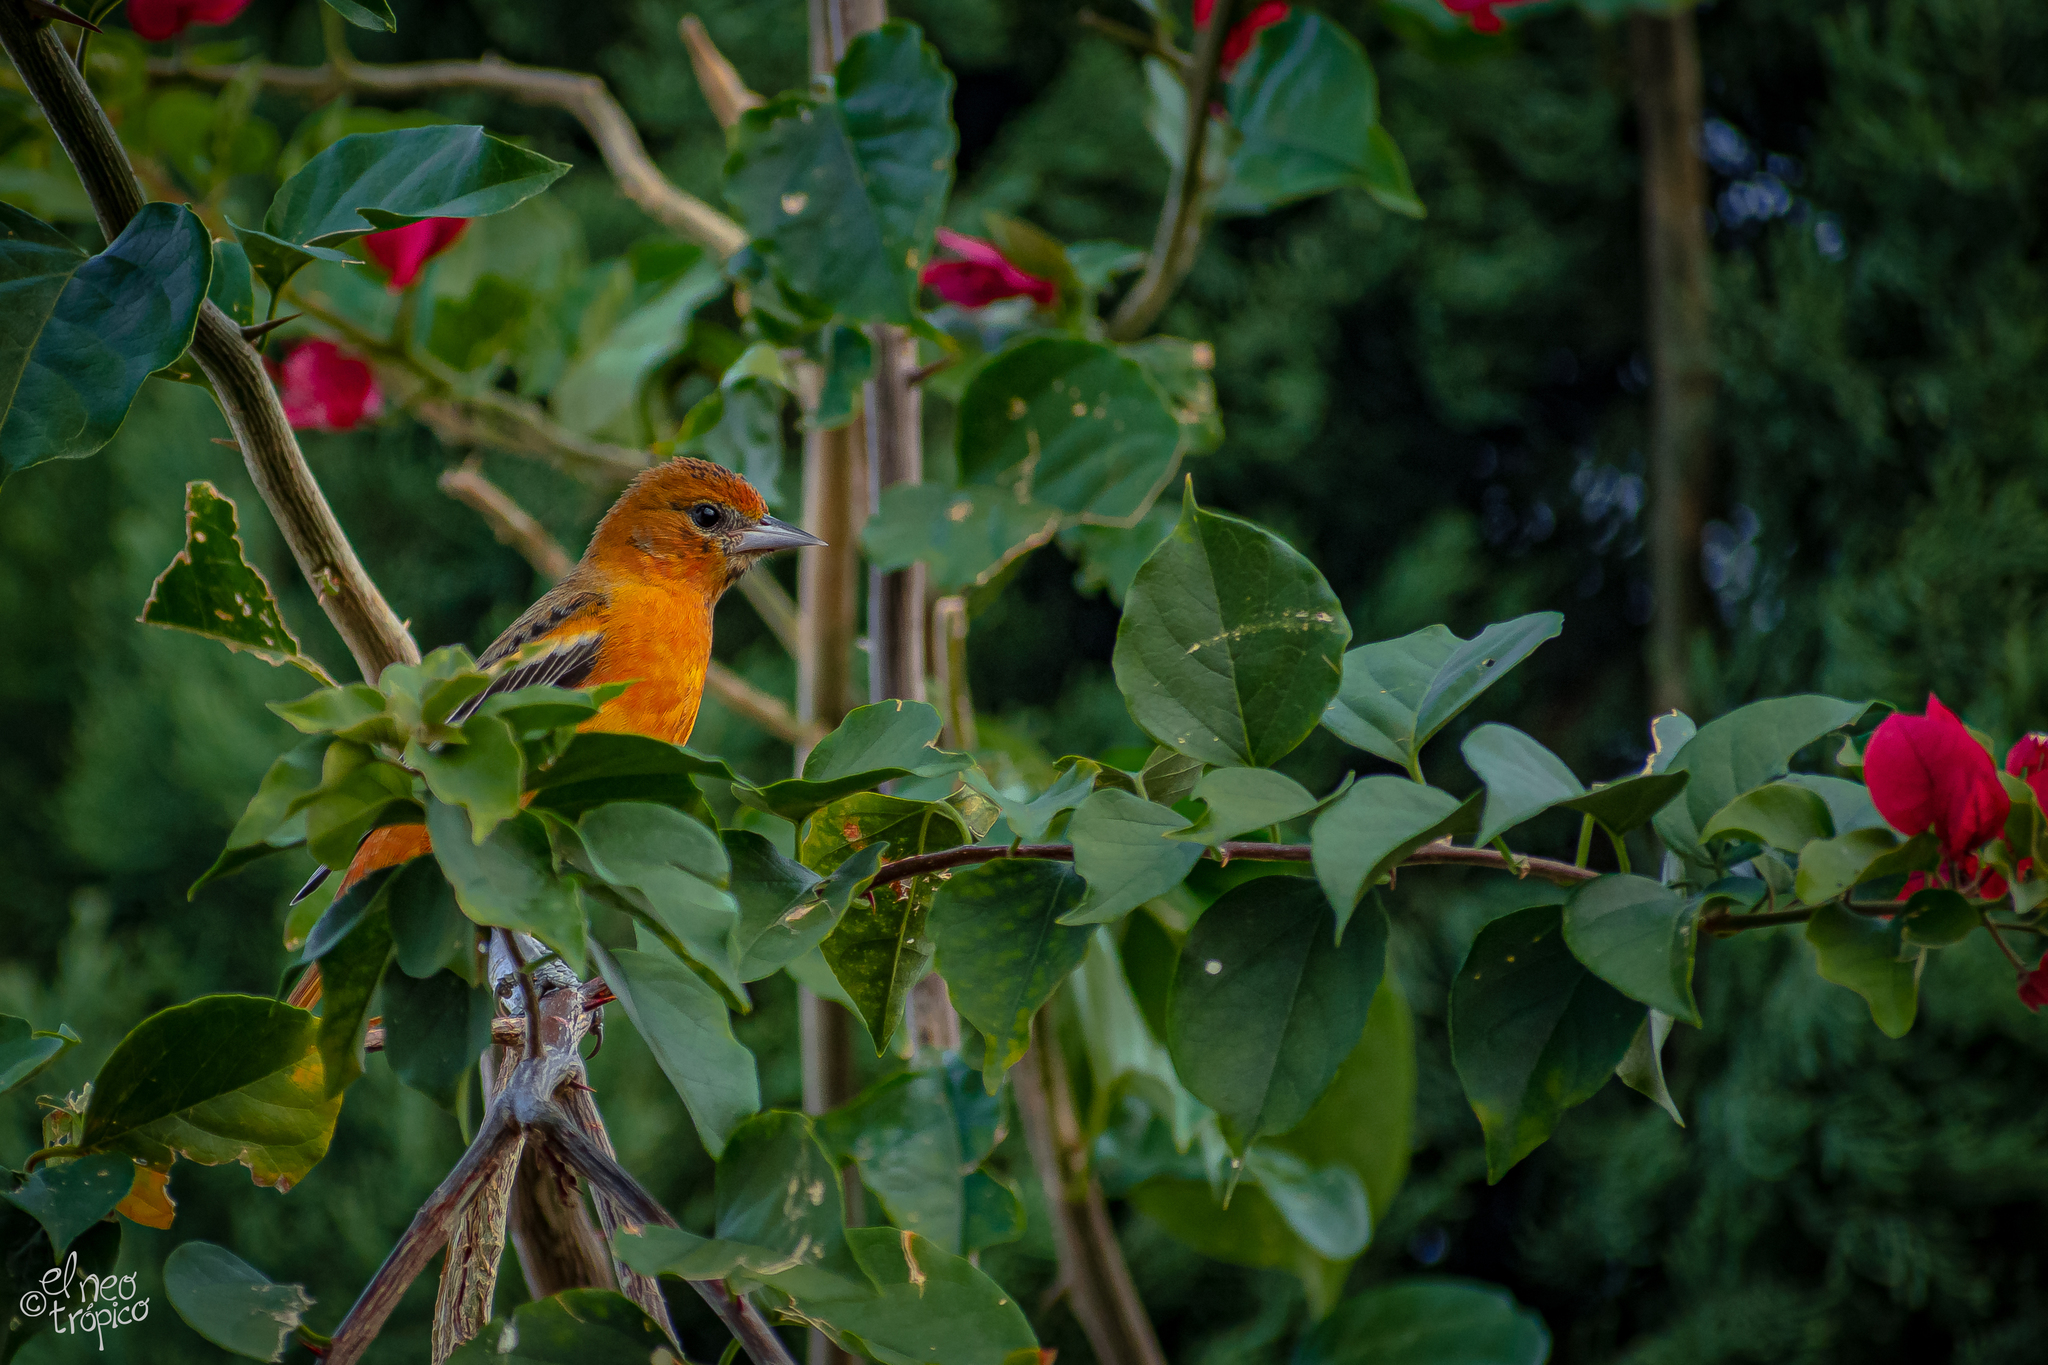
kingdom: Animalia
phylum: Chordata
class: Aves
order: Passeriformes
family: Icteridae
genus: Icterus
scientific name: Icterus galbula
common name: Baltimore oriole
